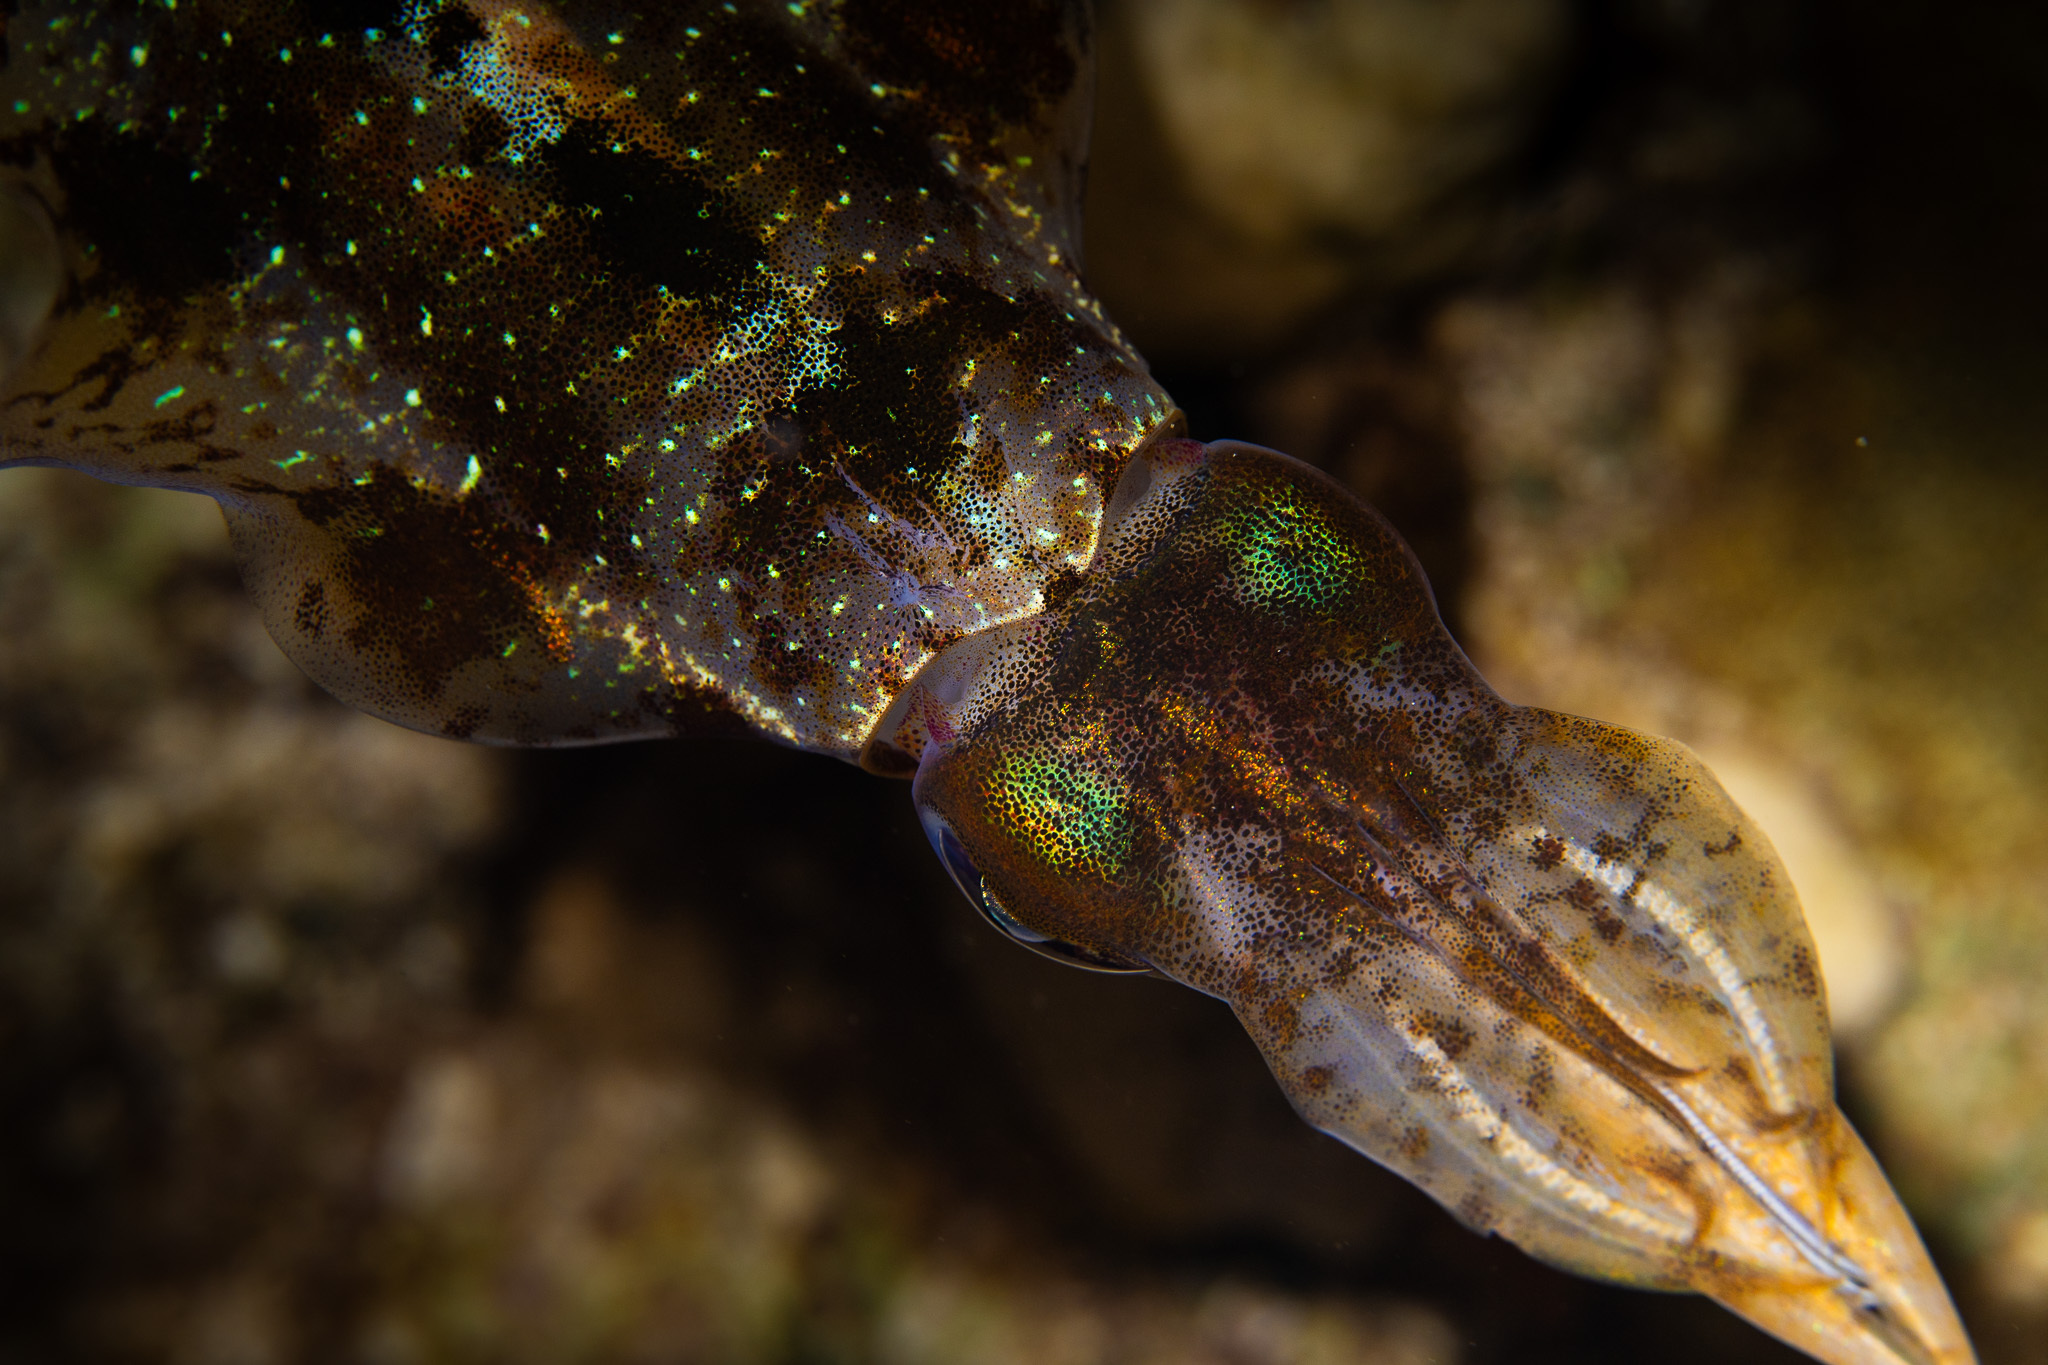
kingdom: Animalia
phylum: Mollusca
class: Cephalopoda
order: Myopsida
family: Loliginidae
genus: Sepioteuthis
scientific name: Sepioteuthis sepioidea
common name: Caribbean reef squid
